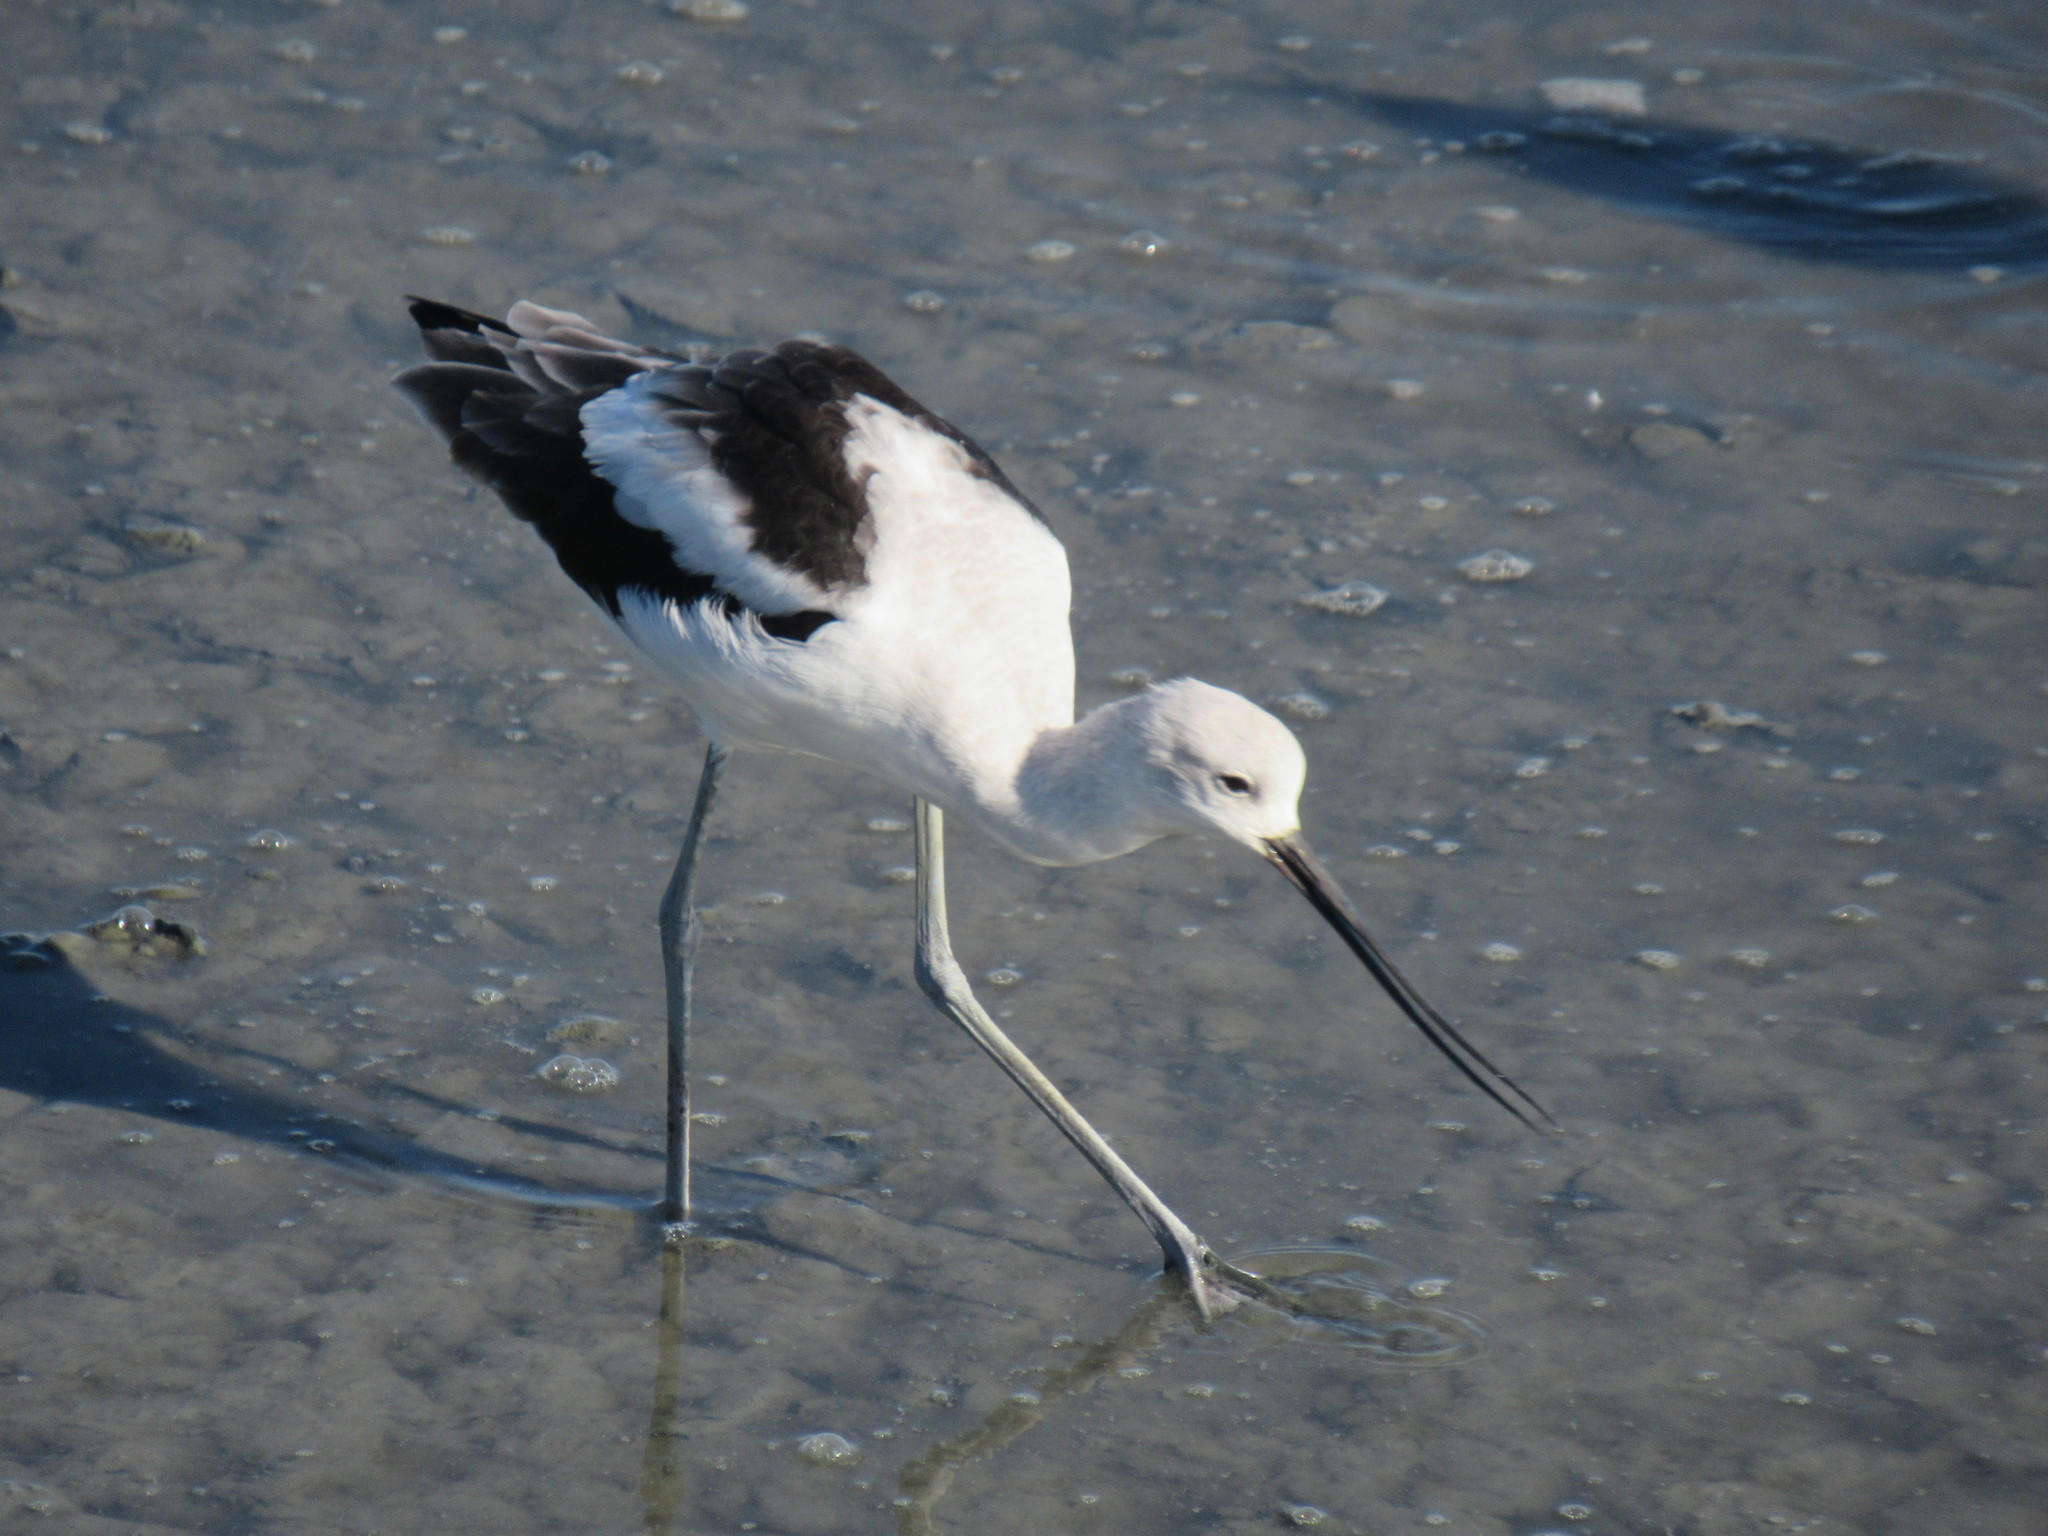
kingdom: Animalia
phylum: Chordata
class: Aves
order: Charadriiformes
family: Recurvirostridae
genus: Recurvirostra
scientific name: Recurvirostra americana
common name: American avocet
